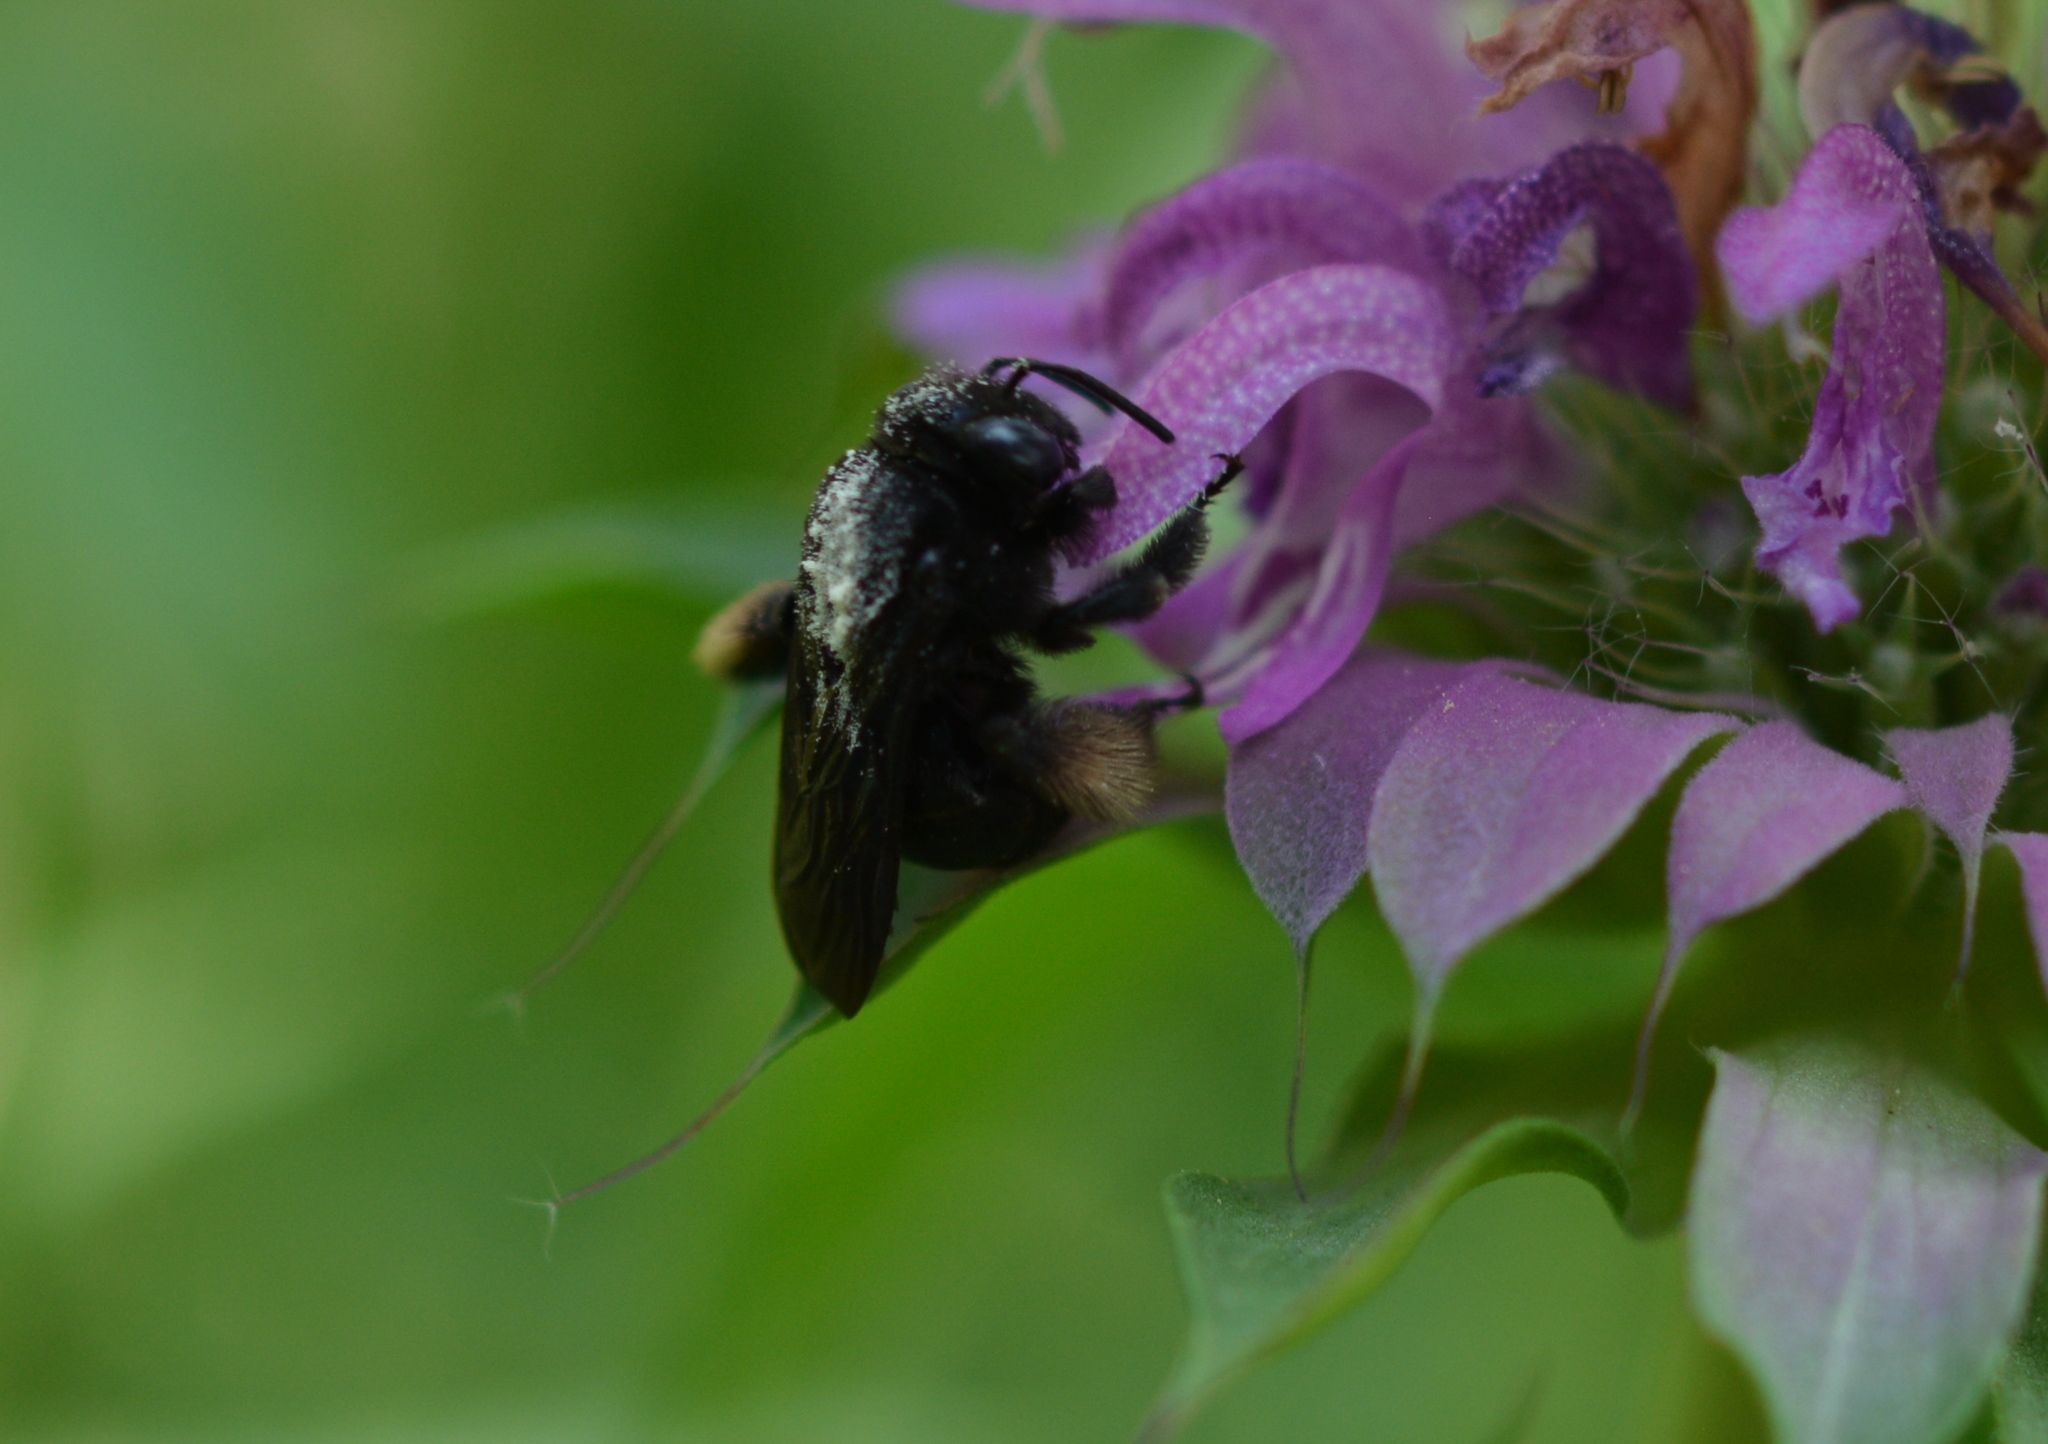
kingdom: Animalia
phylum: Arthropoda
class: Insecta
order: Hymenoptera
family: Apidae
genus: Melissodes
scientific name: Melissodes bimaculatus
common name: Two-spotted long-horned bee
